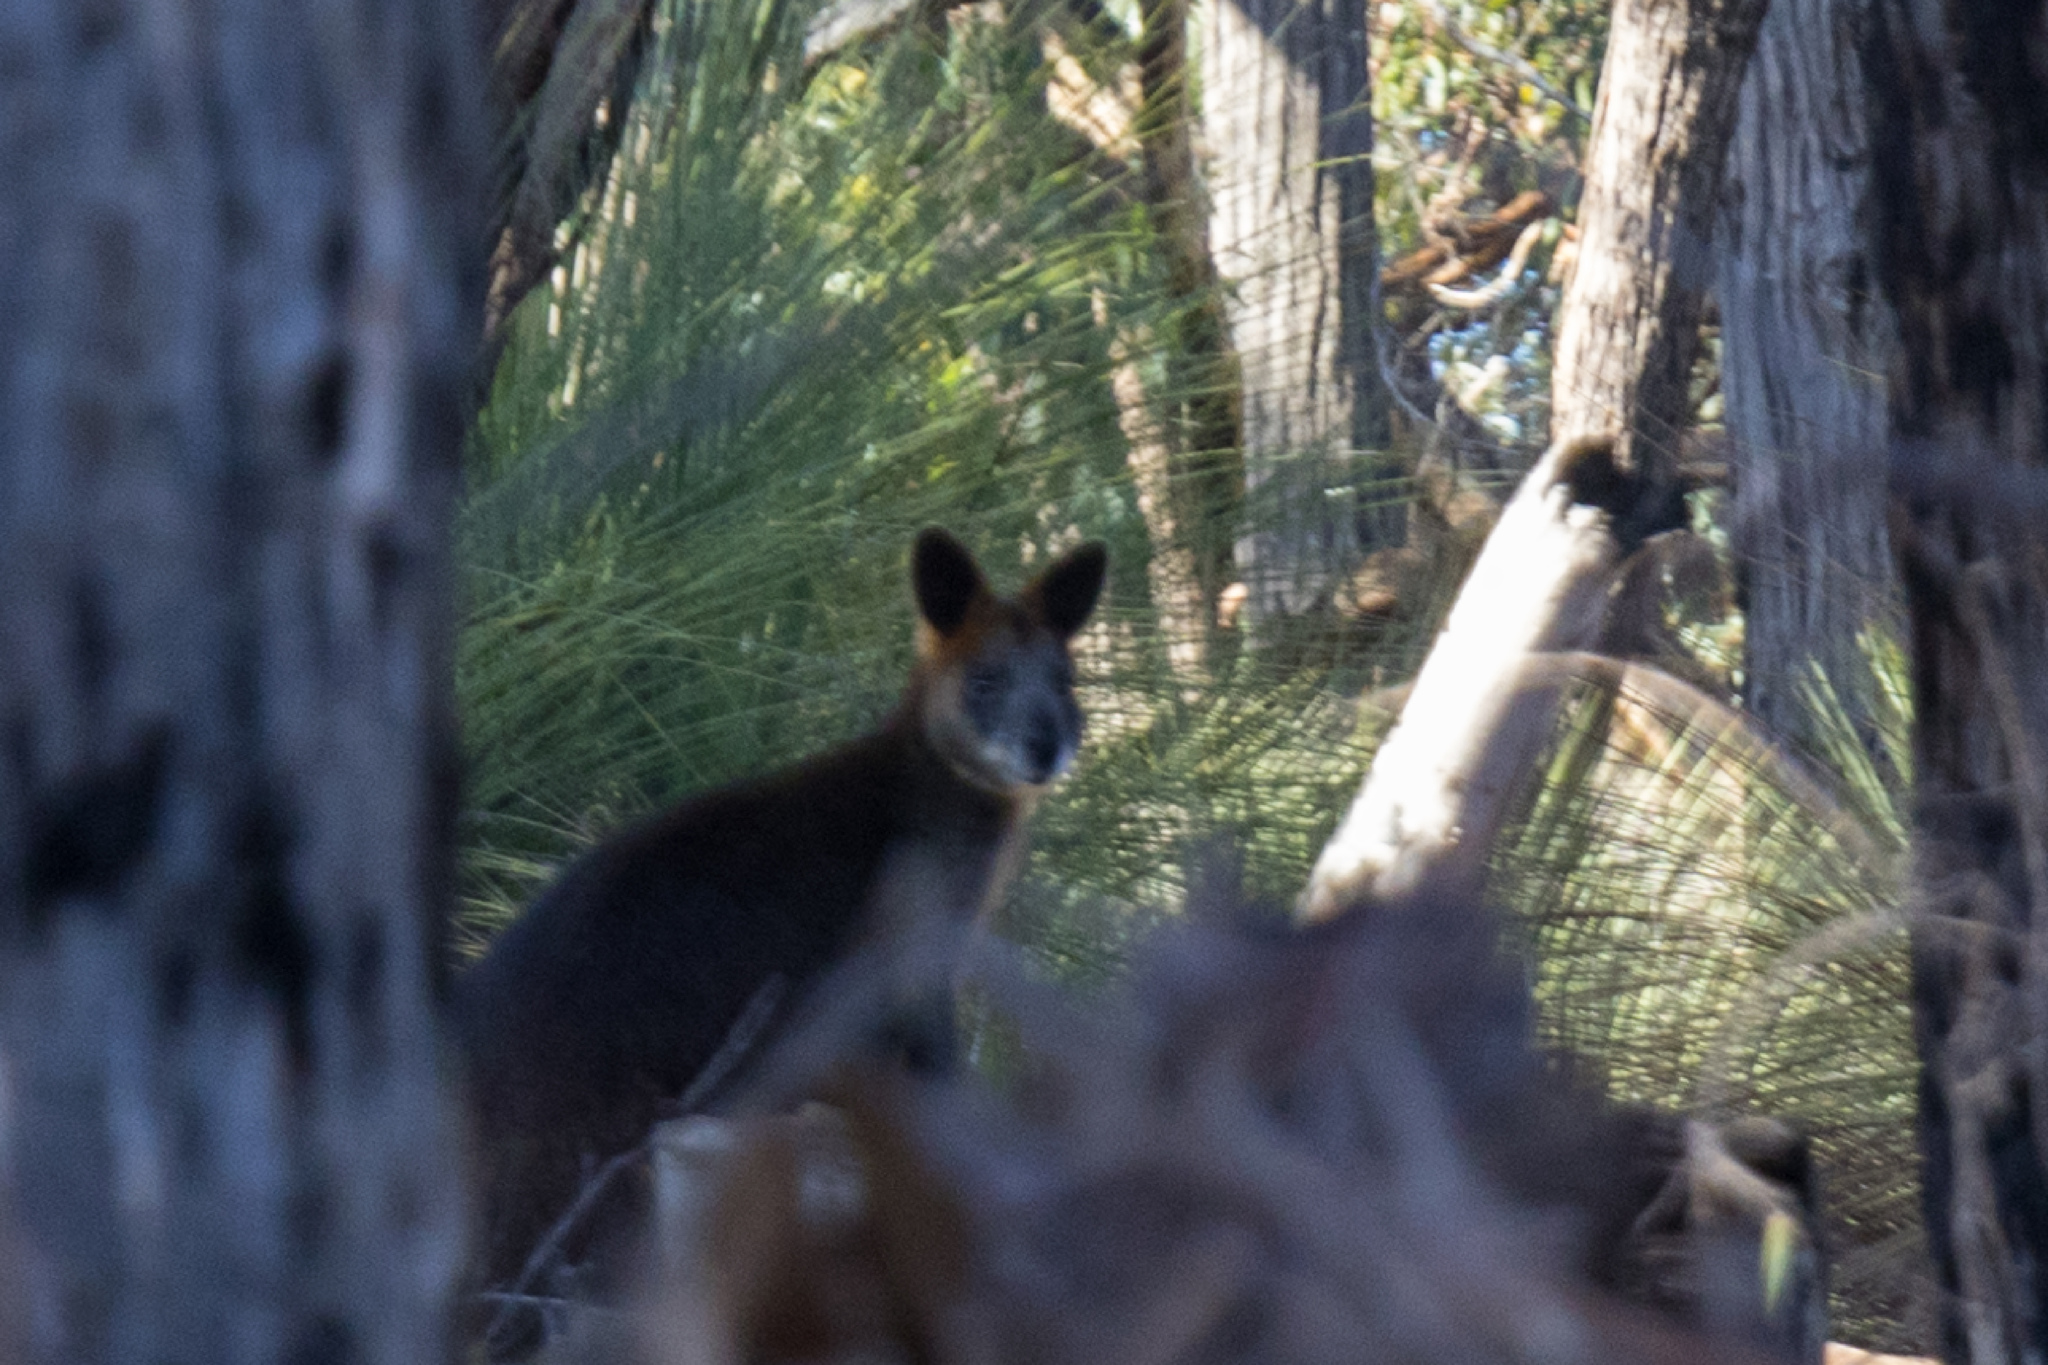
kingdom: Animalia
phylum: Chordata
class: Mammalia
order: Diprotodontia
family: Macropodidae
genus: Wallabia
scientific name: Wallabia bicolor
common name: Swamp wallaby
